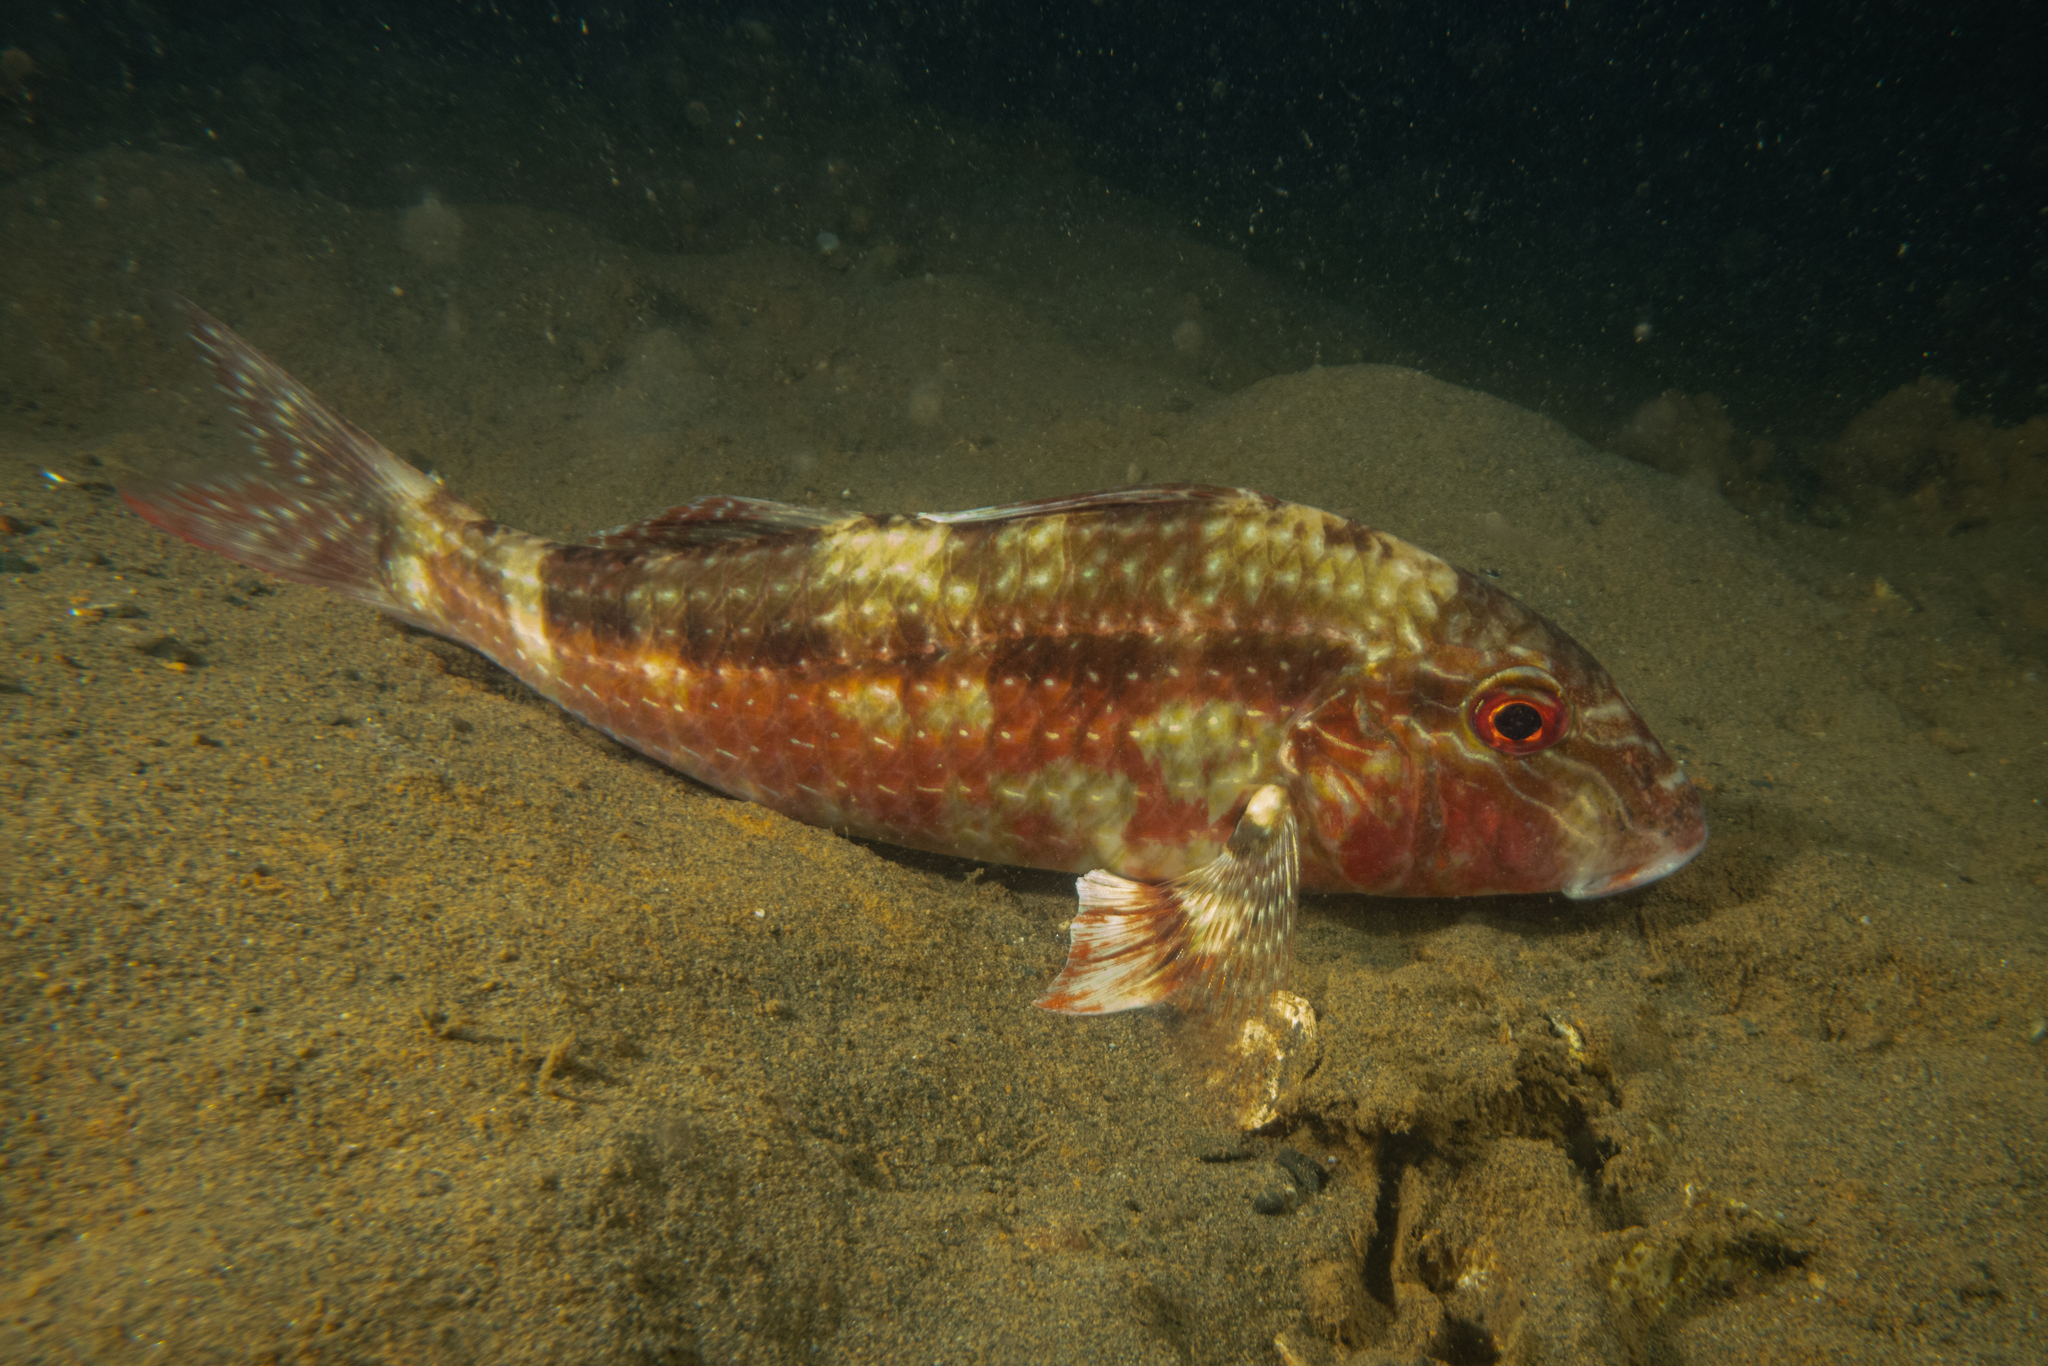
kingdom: Animalia
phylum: Chordata
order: Perciformes
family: Mullidae
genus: Upeneichthys
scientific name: Upeneichthys lineatus
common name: Red mullet
